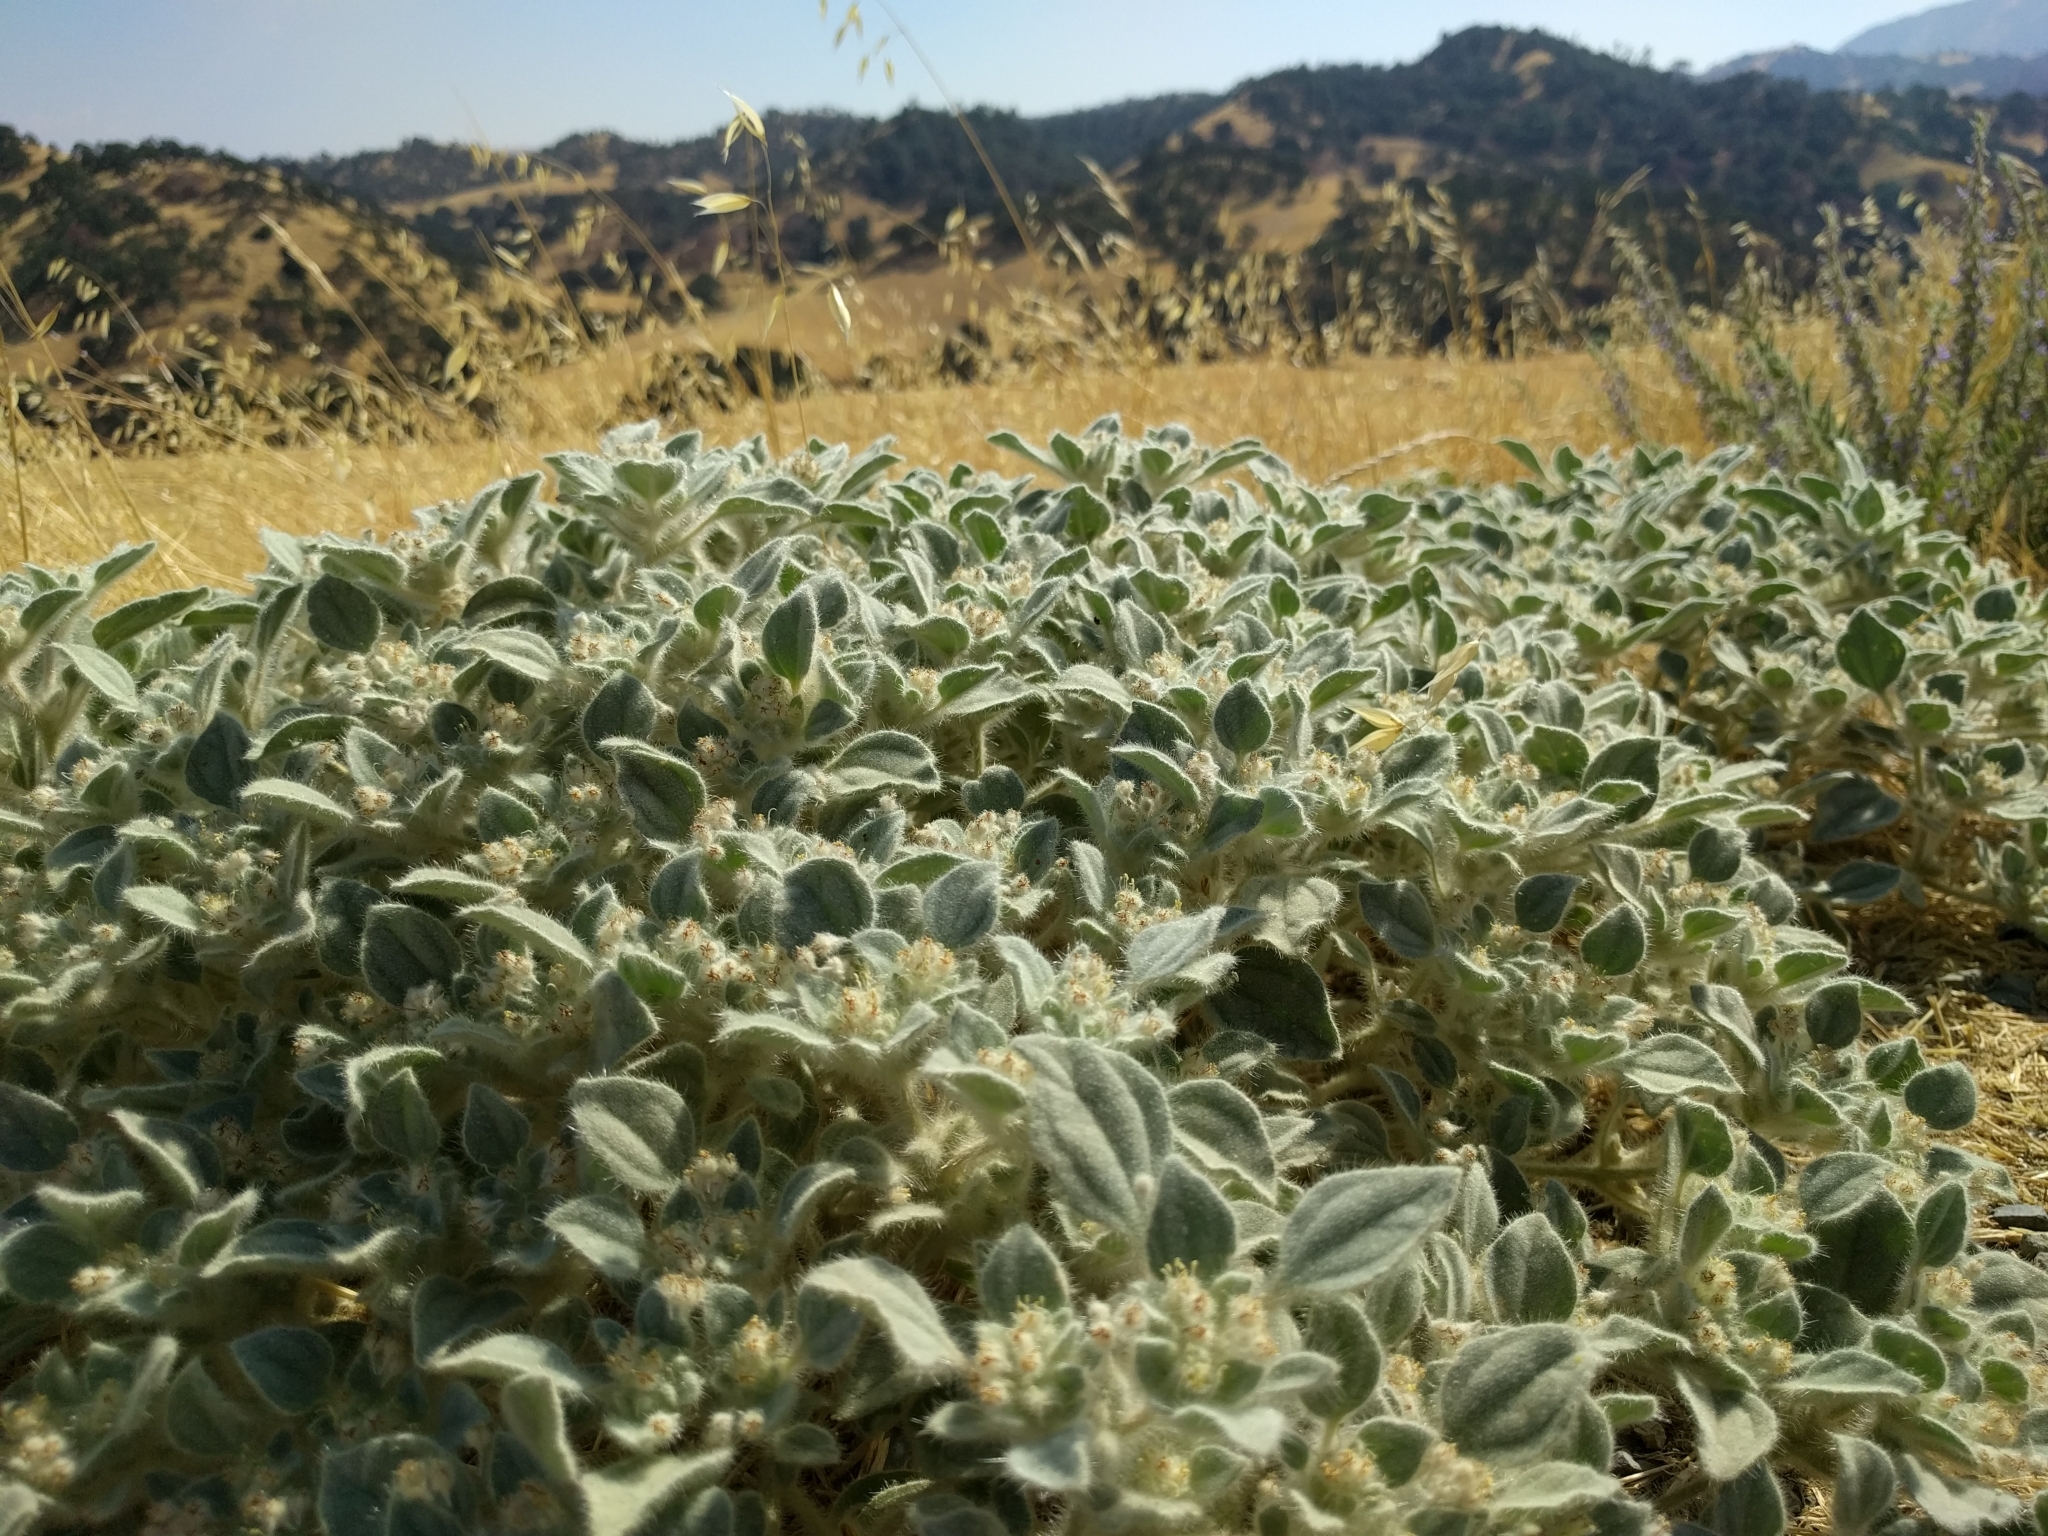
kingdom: Plantae
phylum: Tracheophyta
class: Magnoliopsida
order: Malpighiales
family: Euphorbiaceae
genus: Croton
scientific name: Croton setiger
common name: Dove weed
